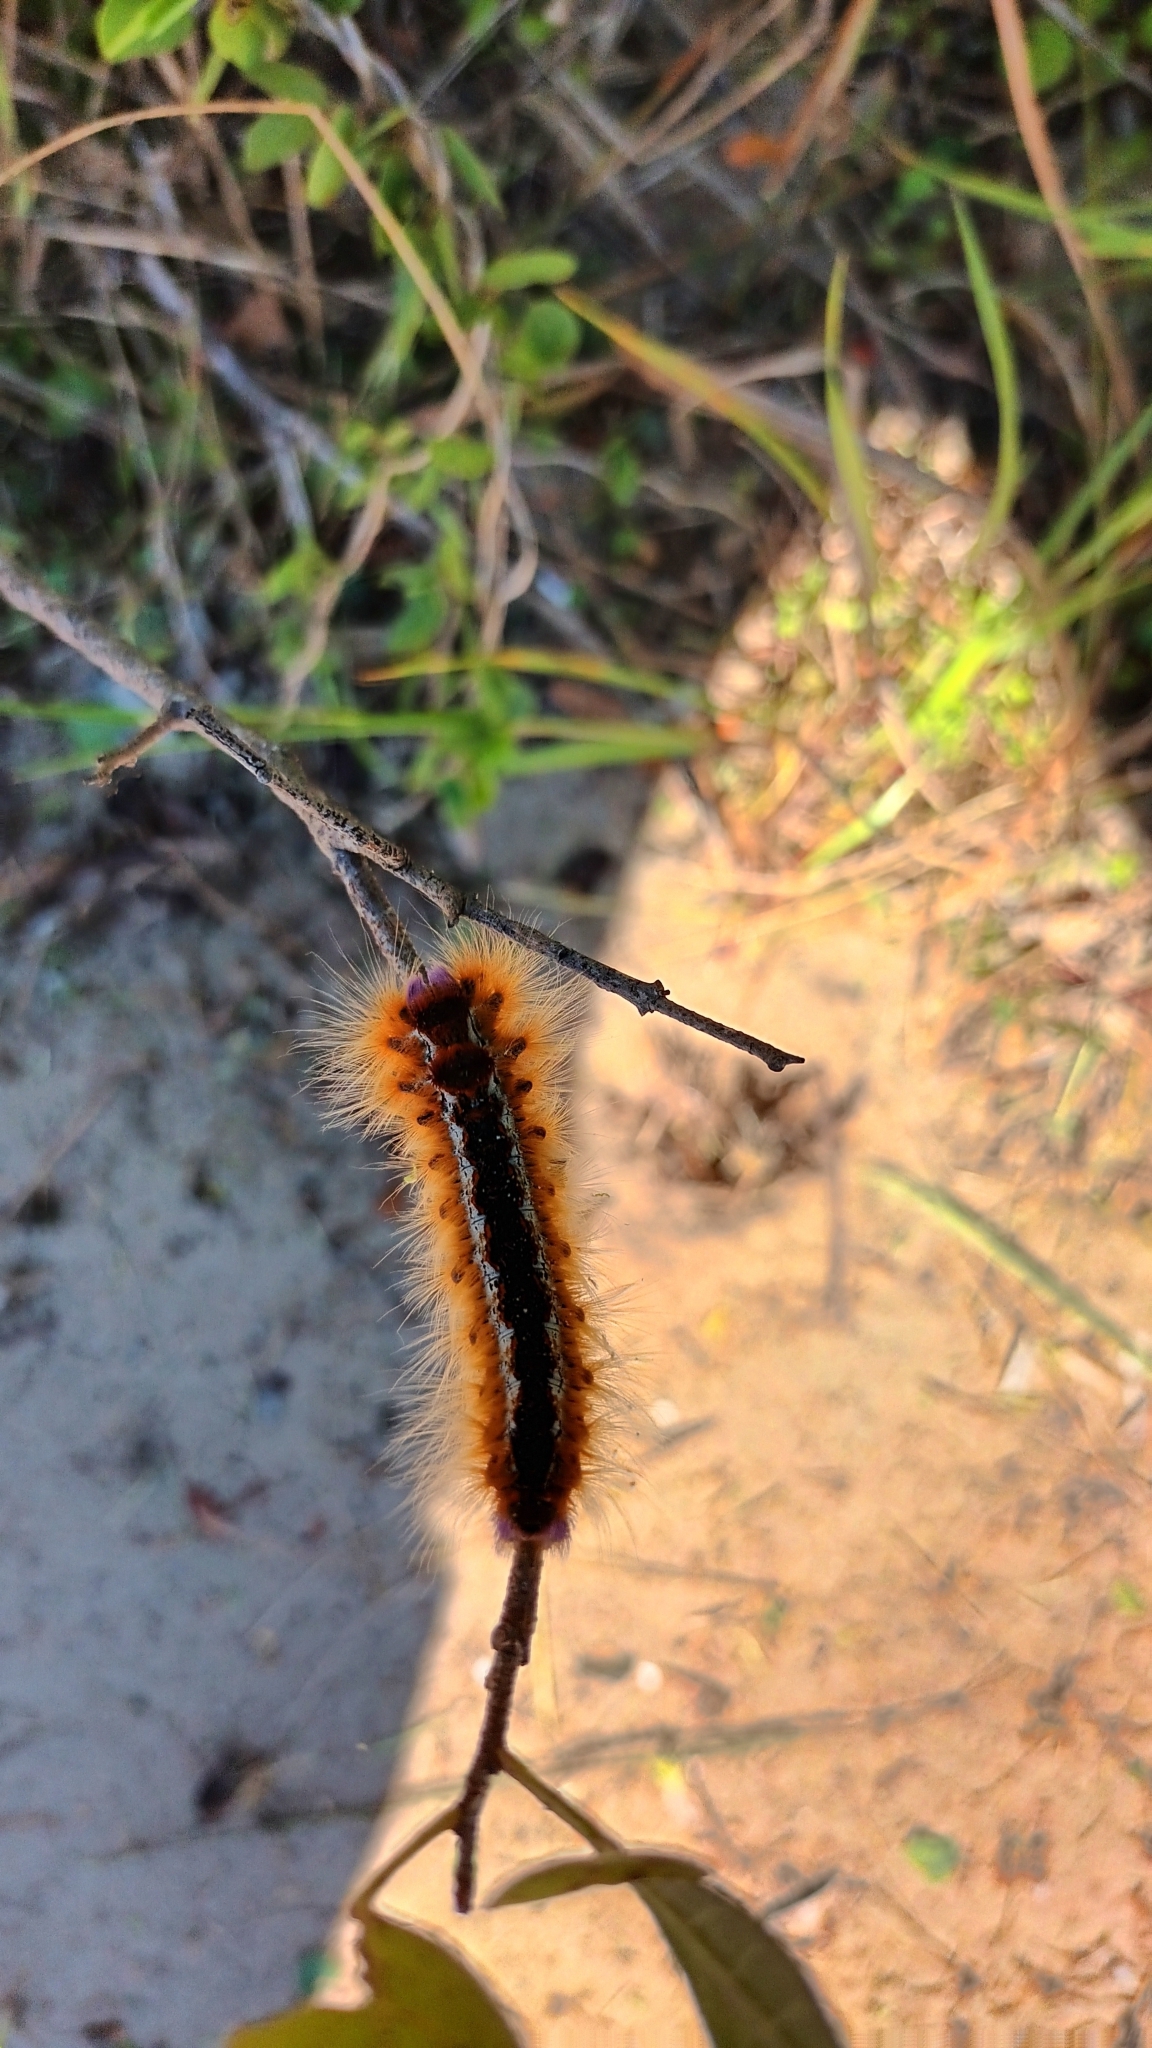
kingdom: Animalia
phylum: Arthropoda
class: Insecta
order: Lepidoptera
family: Lasiocampidae
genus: Eutricha
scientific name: Eutricha capensis
